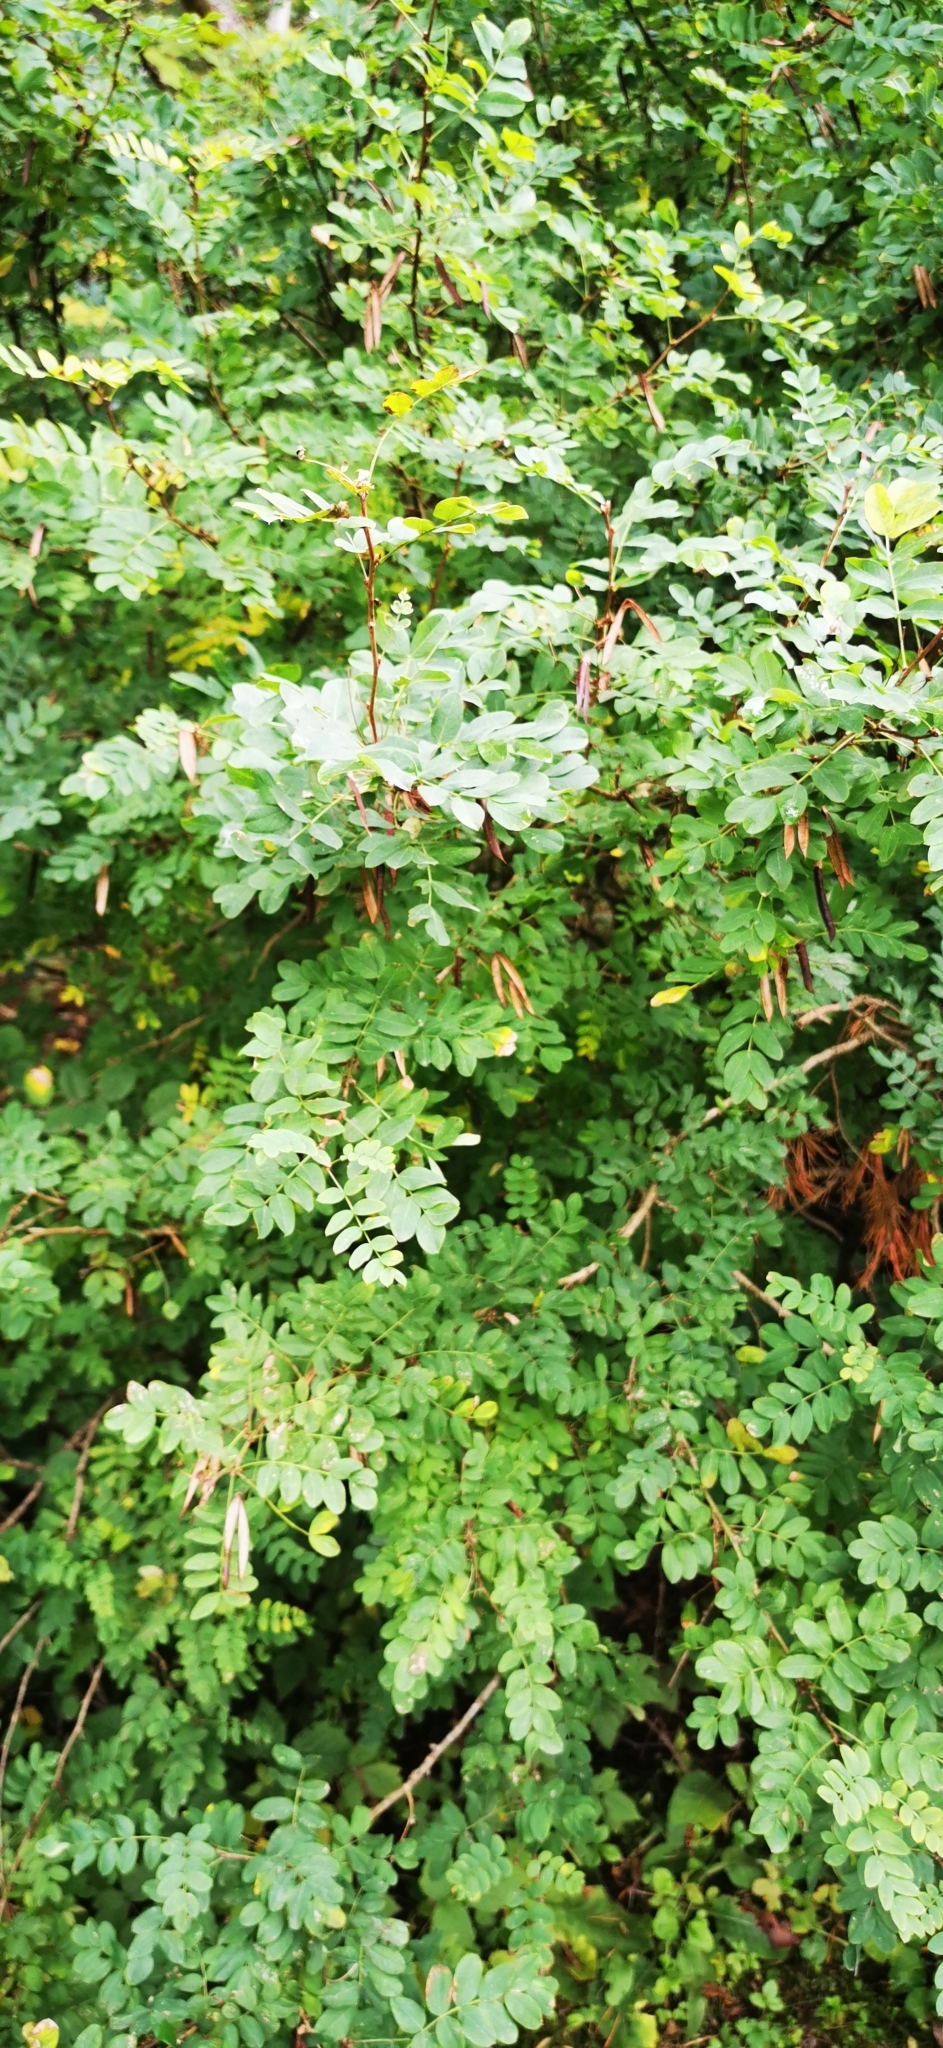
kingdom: Plantae
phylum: Tracheophyta
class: Magnoliopsida
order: Fabales
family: Fabaceae
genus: Caragana
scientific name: Caragana arborescens
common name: Siberian peashrub
